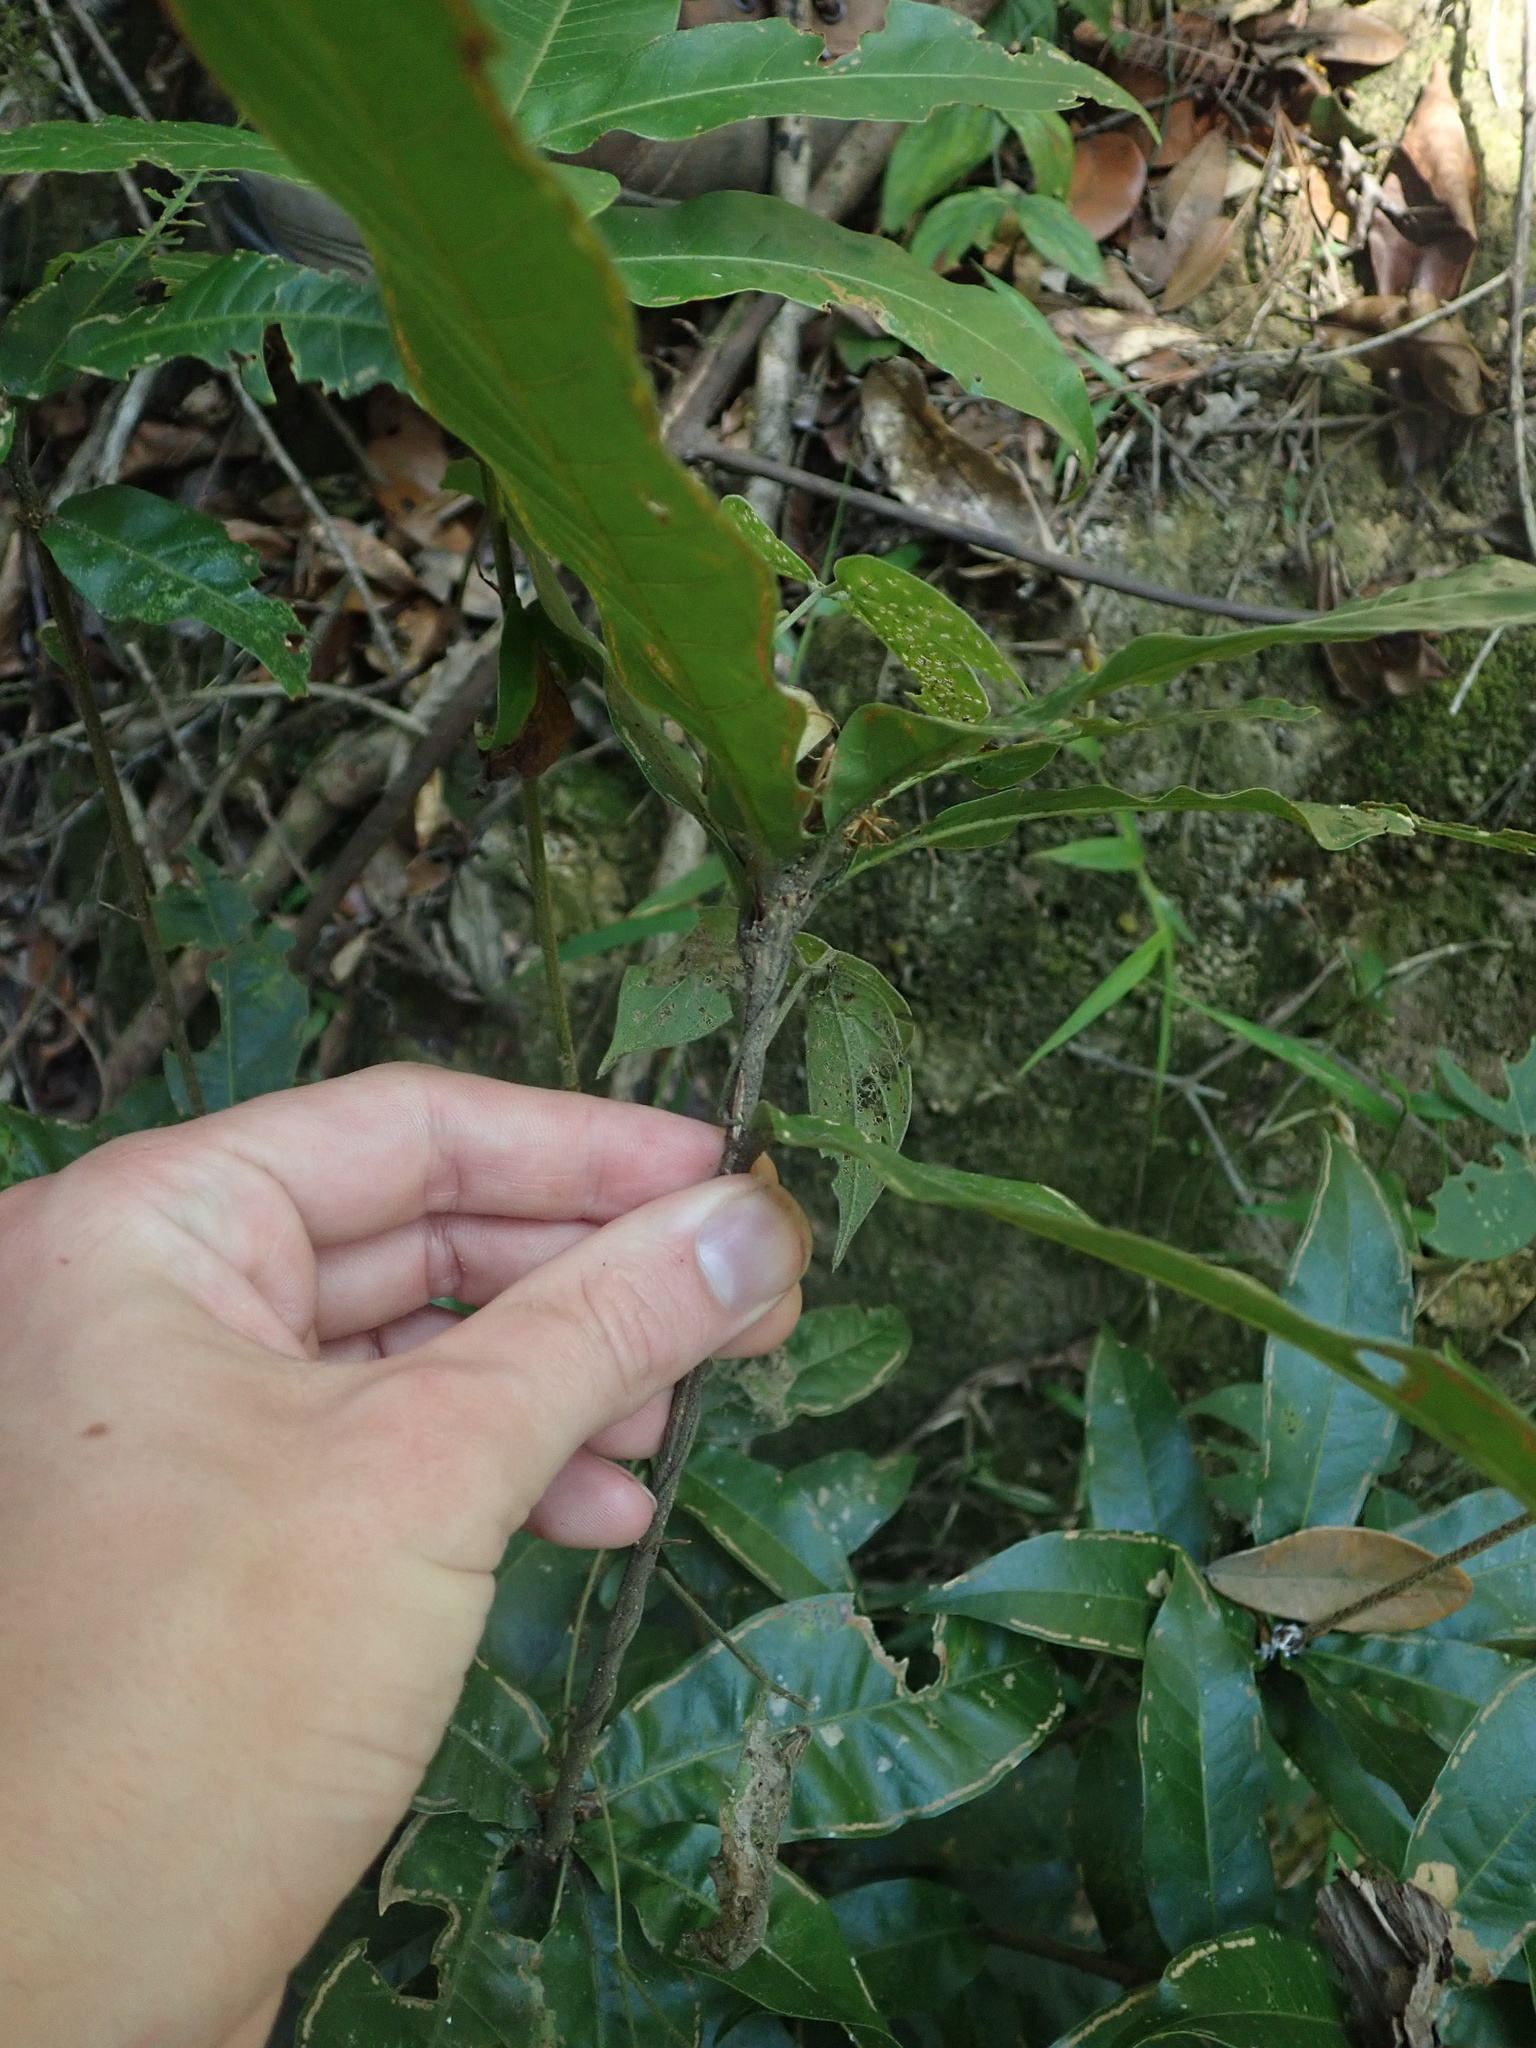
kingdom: Plantae
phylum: Tracheophyta
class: Magnoliopsida
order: Fagales
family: Fagaceae
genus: Quercus
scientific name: Quercus sapotifolia
